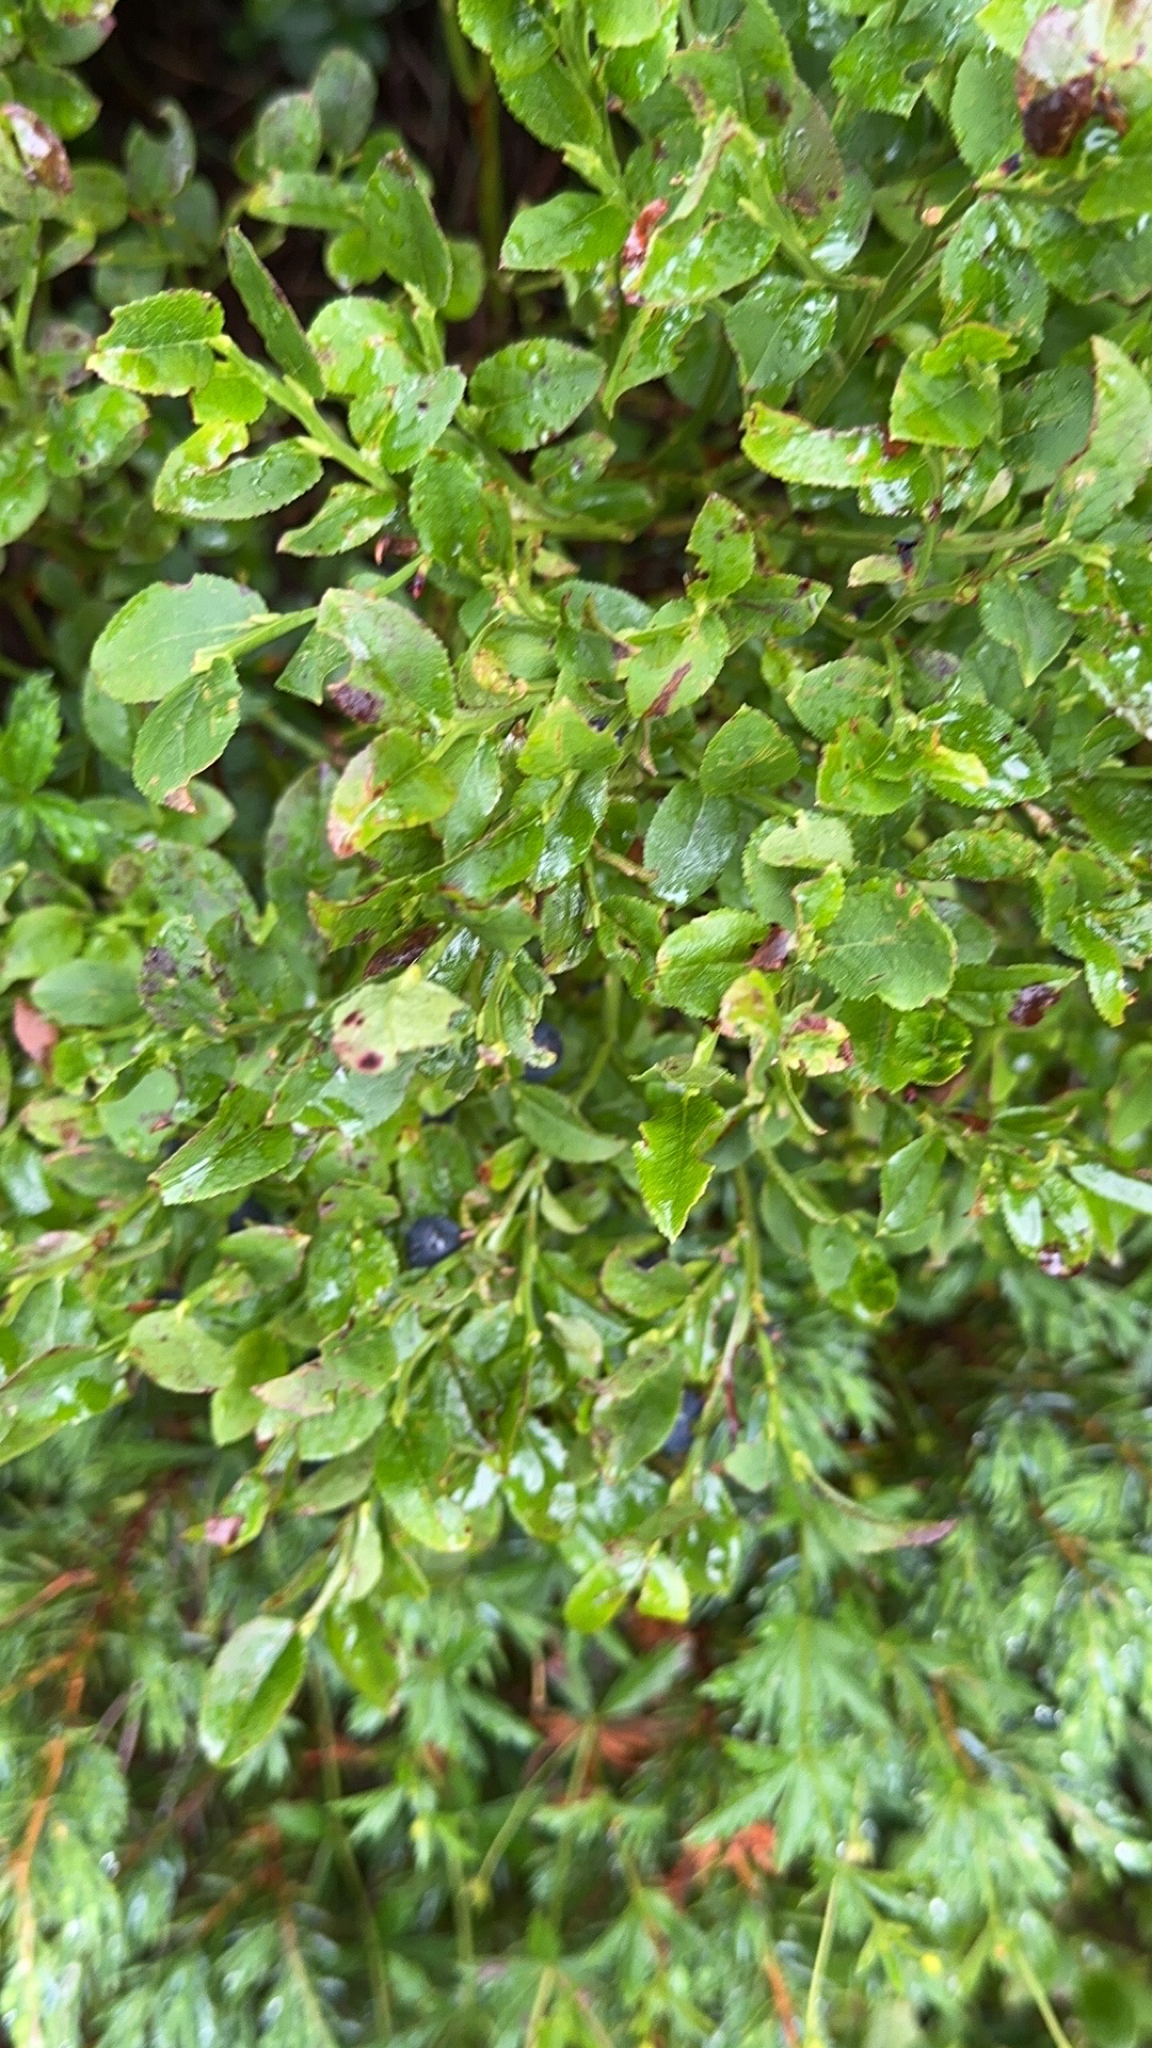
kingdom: Plantae
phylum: Tracheophyta
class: Magnoliopsida
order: Ericales
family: Ericaceae
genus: Vaccinium
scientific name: Vaccinium myrtillus
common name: Bilberry
